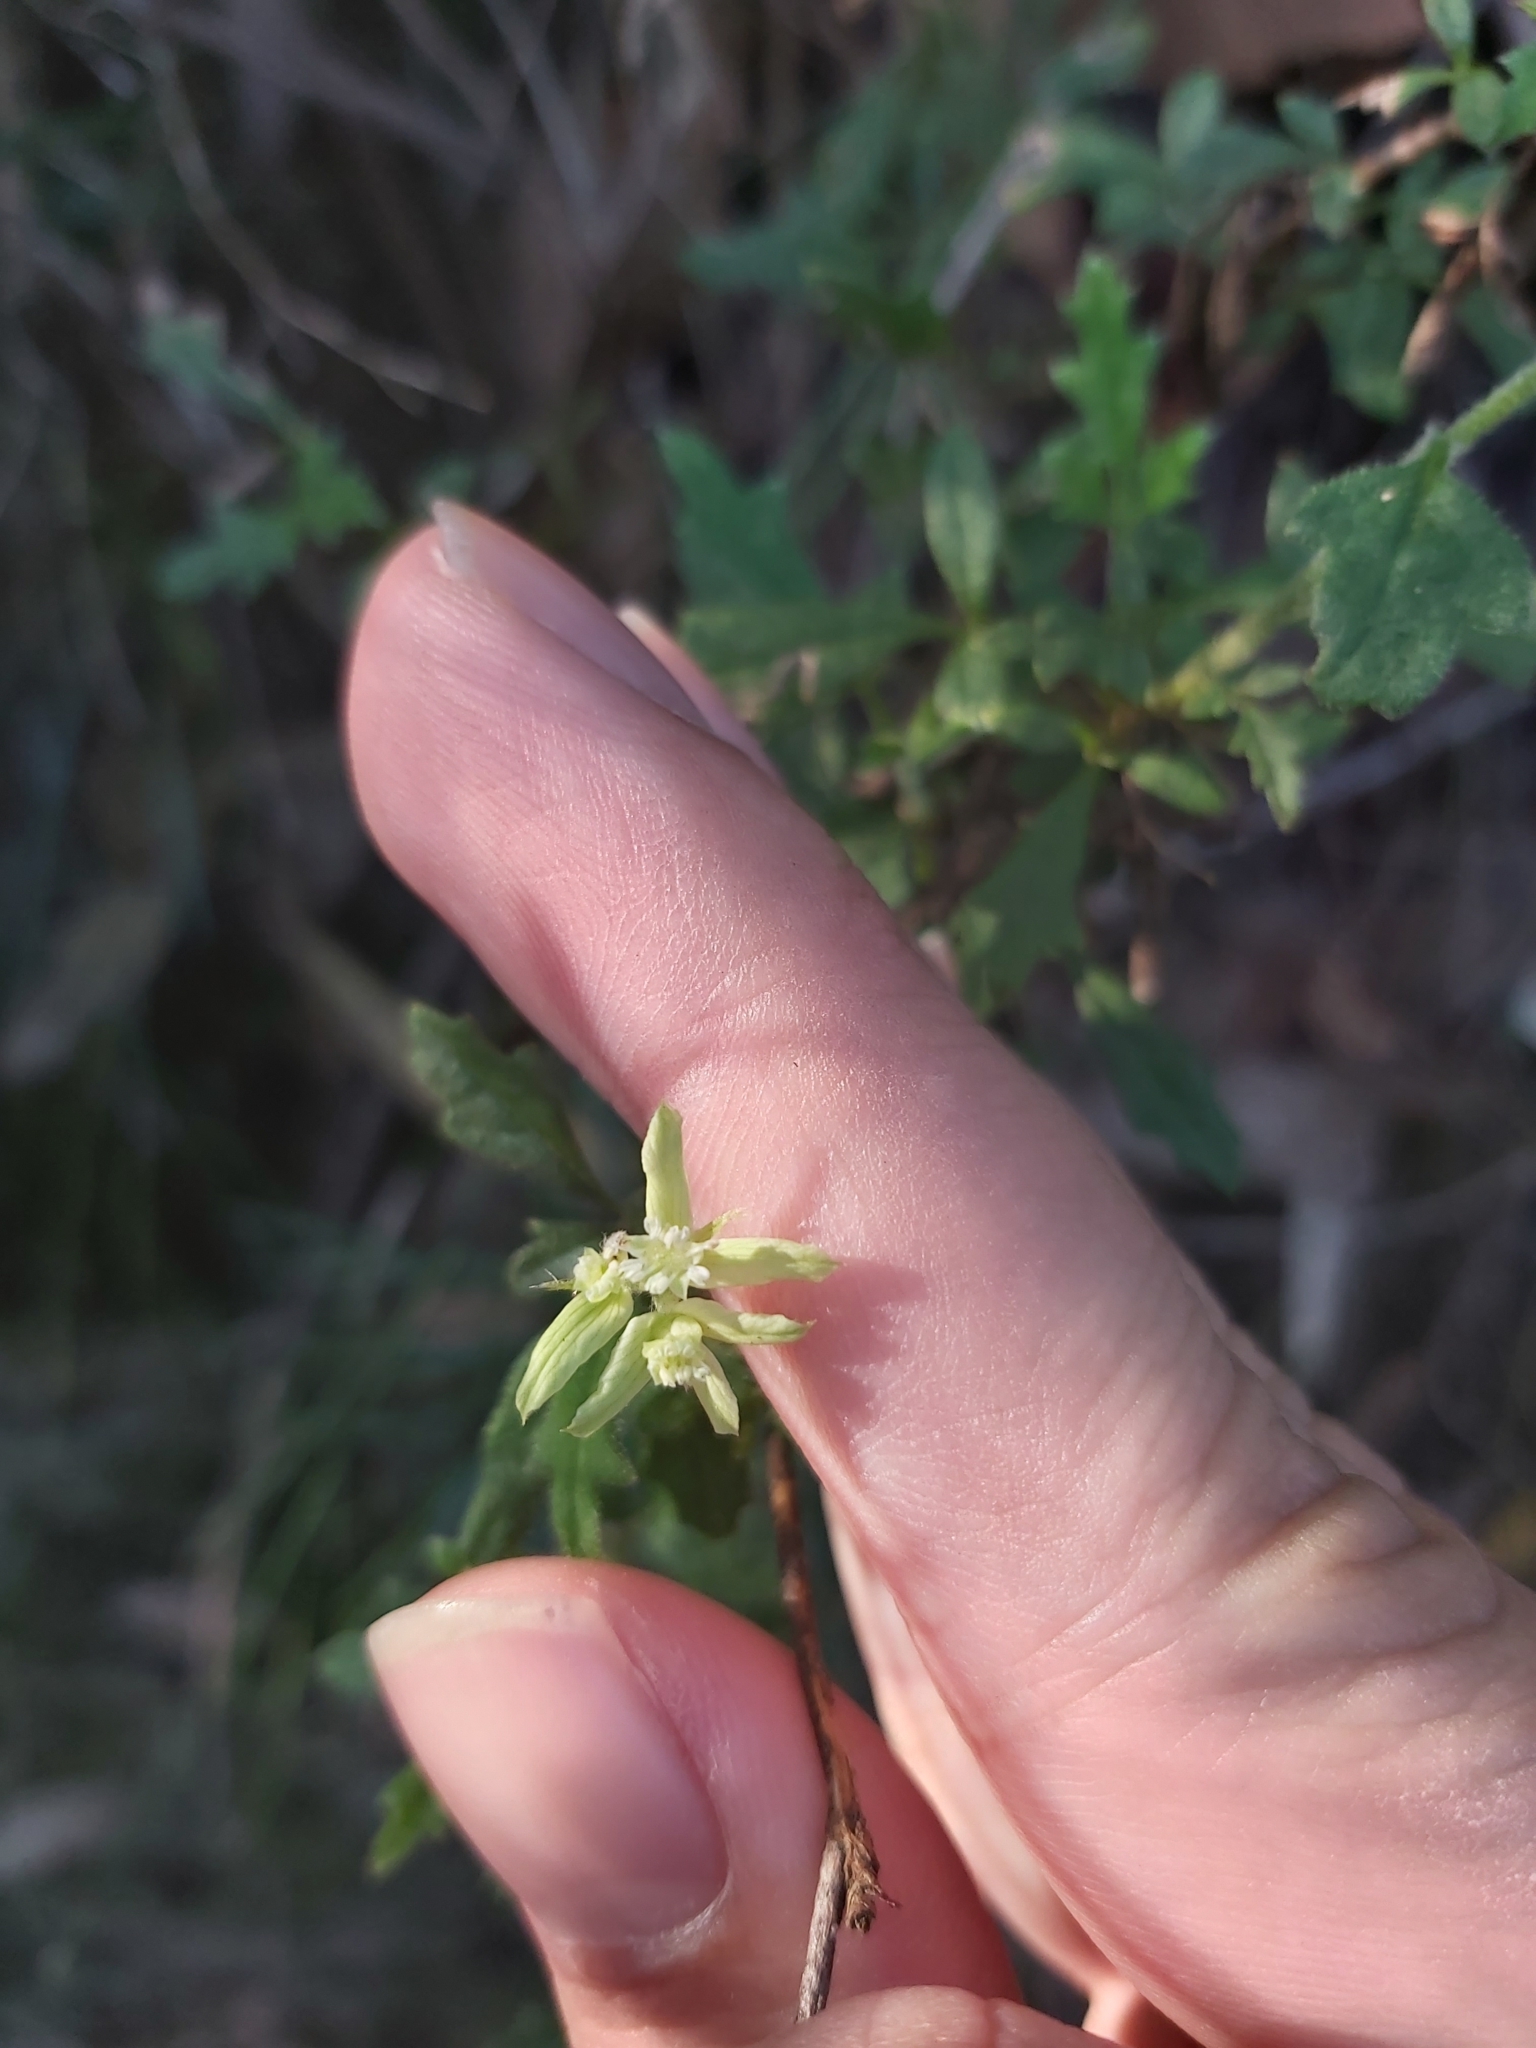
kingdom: Plantae
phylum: Tracheophyta
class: Magnoliopsida
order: Apiales
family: Apiaceae
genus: Xanthosia
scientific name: Xanthosia pilosa
